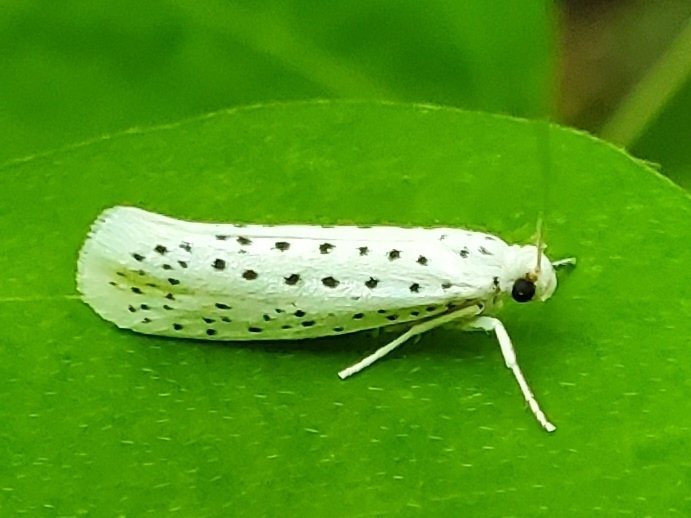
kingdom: Animalia
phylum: Arthropoda
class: Insecta
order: Lepidoptera
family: Yponomeutidae
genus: Yponomeuta
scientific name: Yponomeuta multipunctella
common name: American ermine moth
